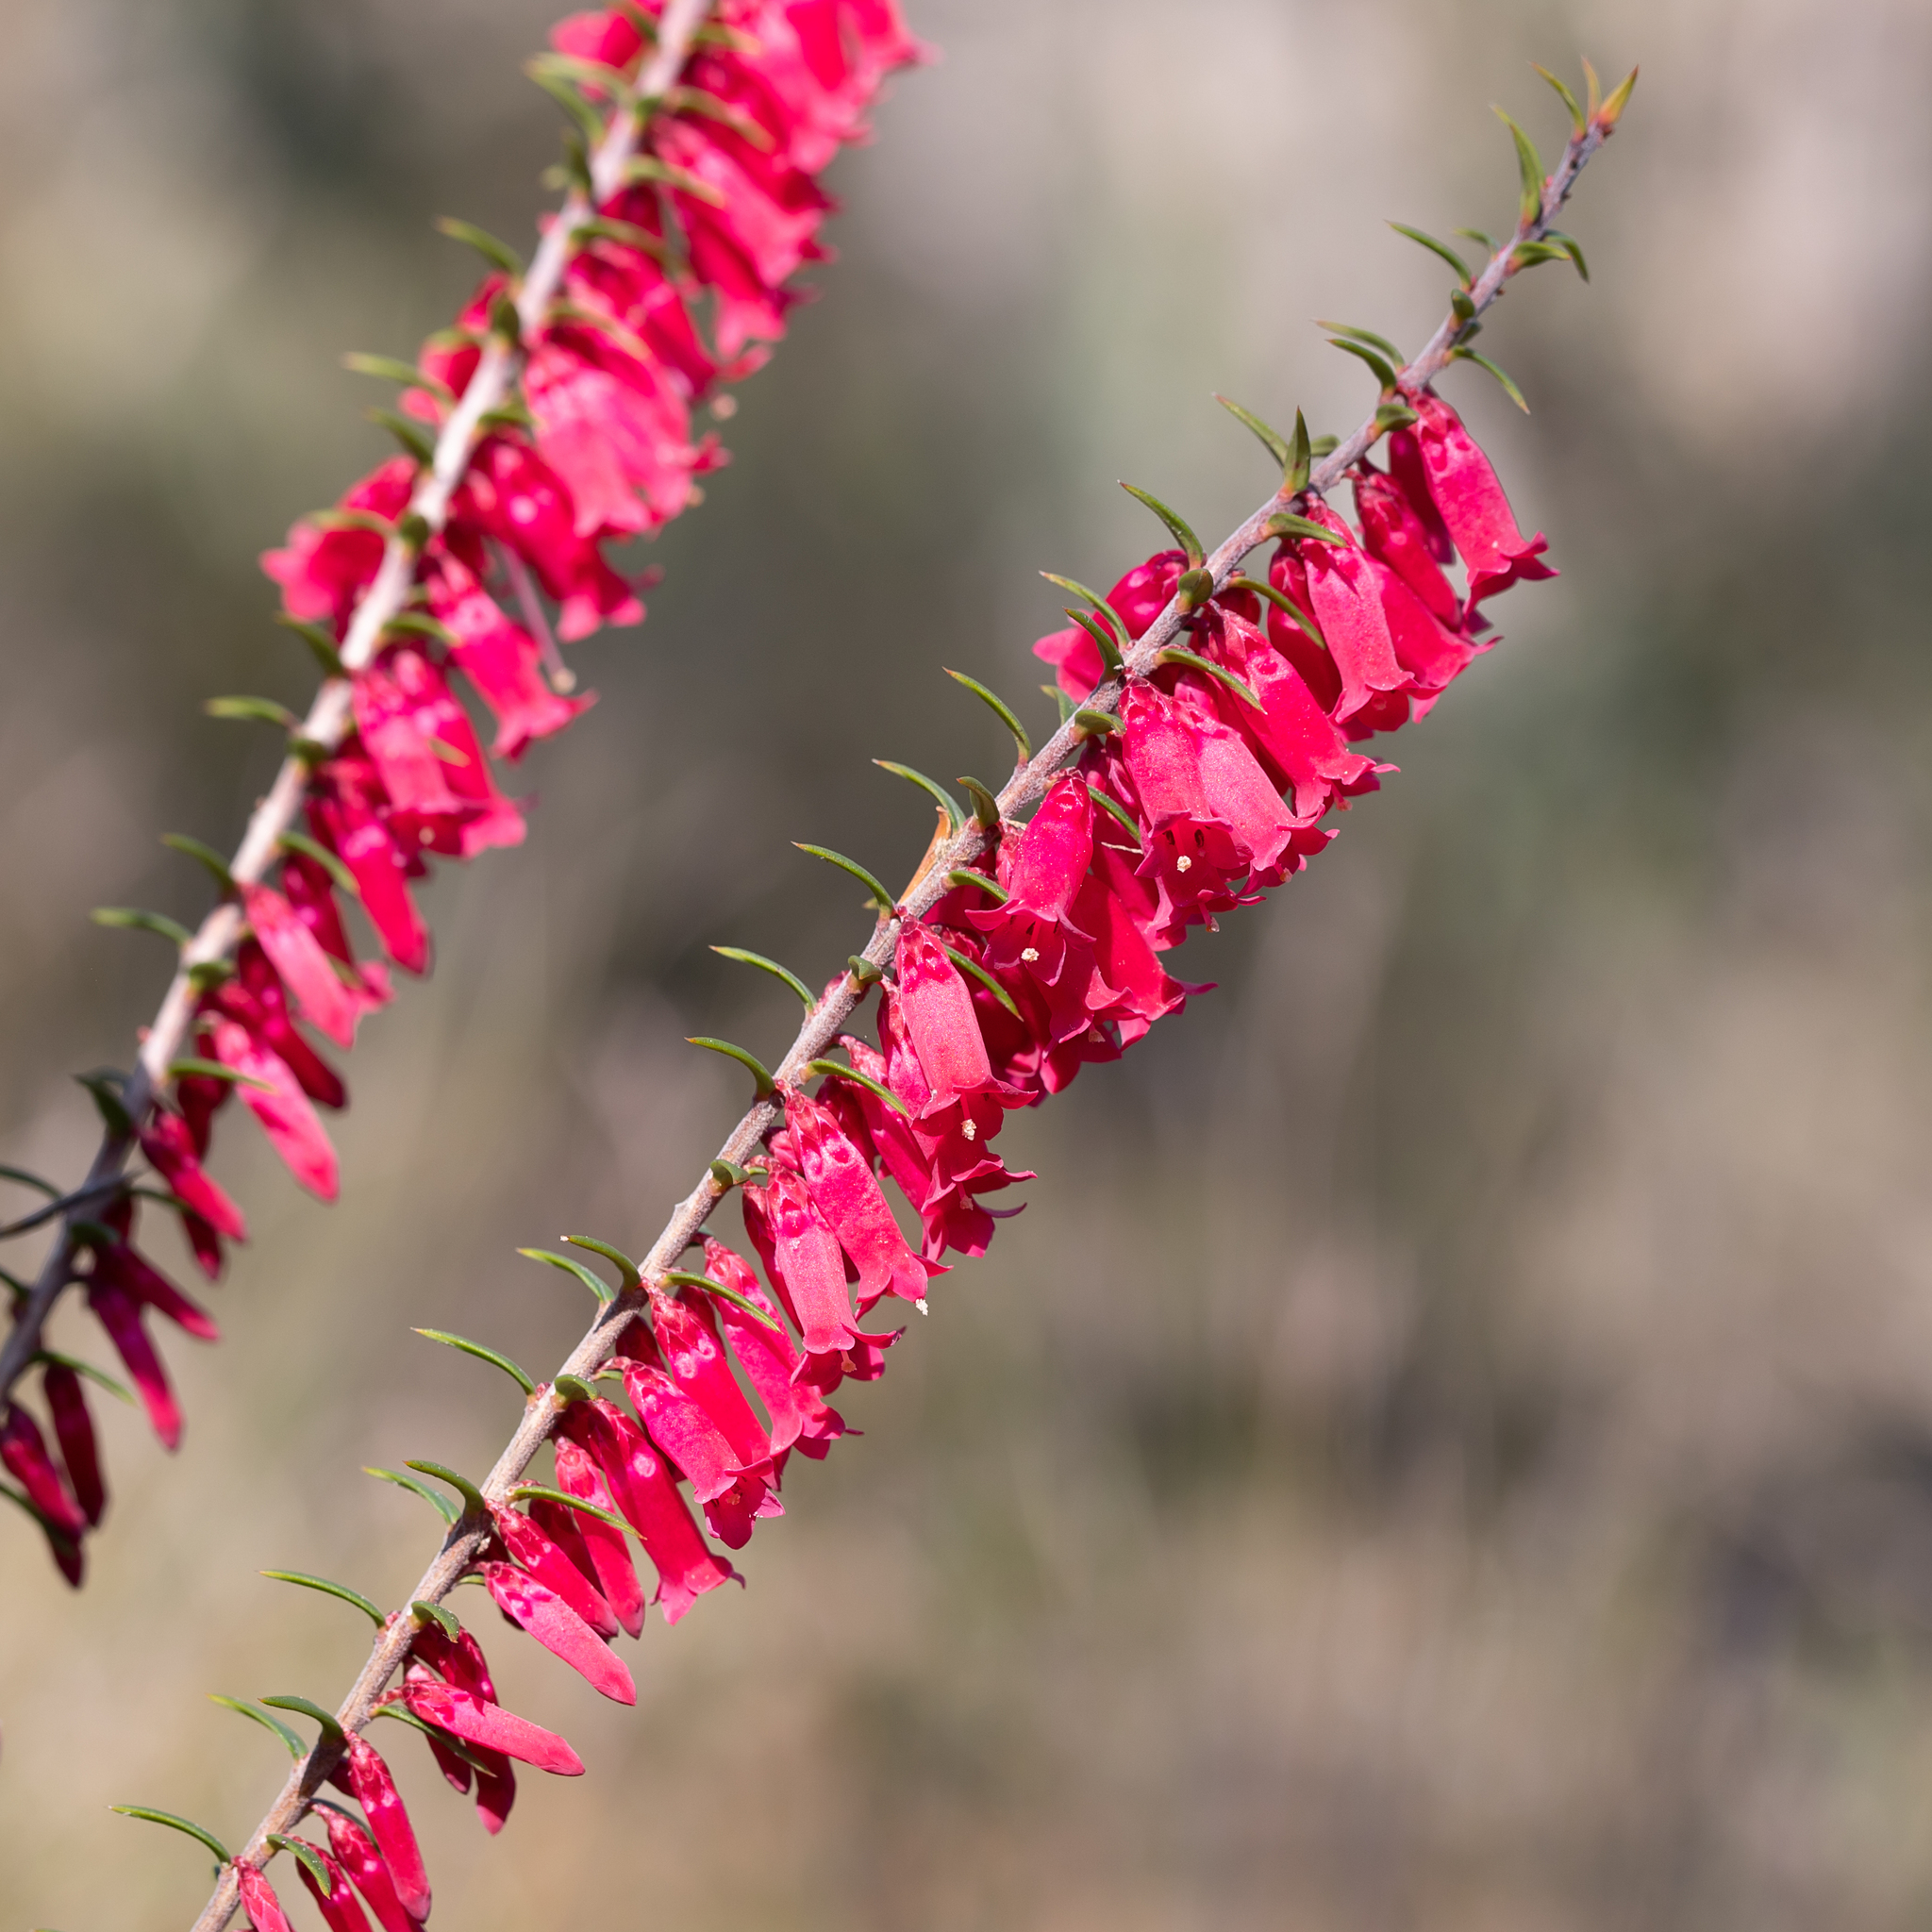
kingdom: Plantae
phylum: Tracheophyta
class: Magnoliopsida
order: Ericales
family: Ericaceae
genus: Epacris
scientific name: Epacris impressa
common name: Common-heath
